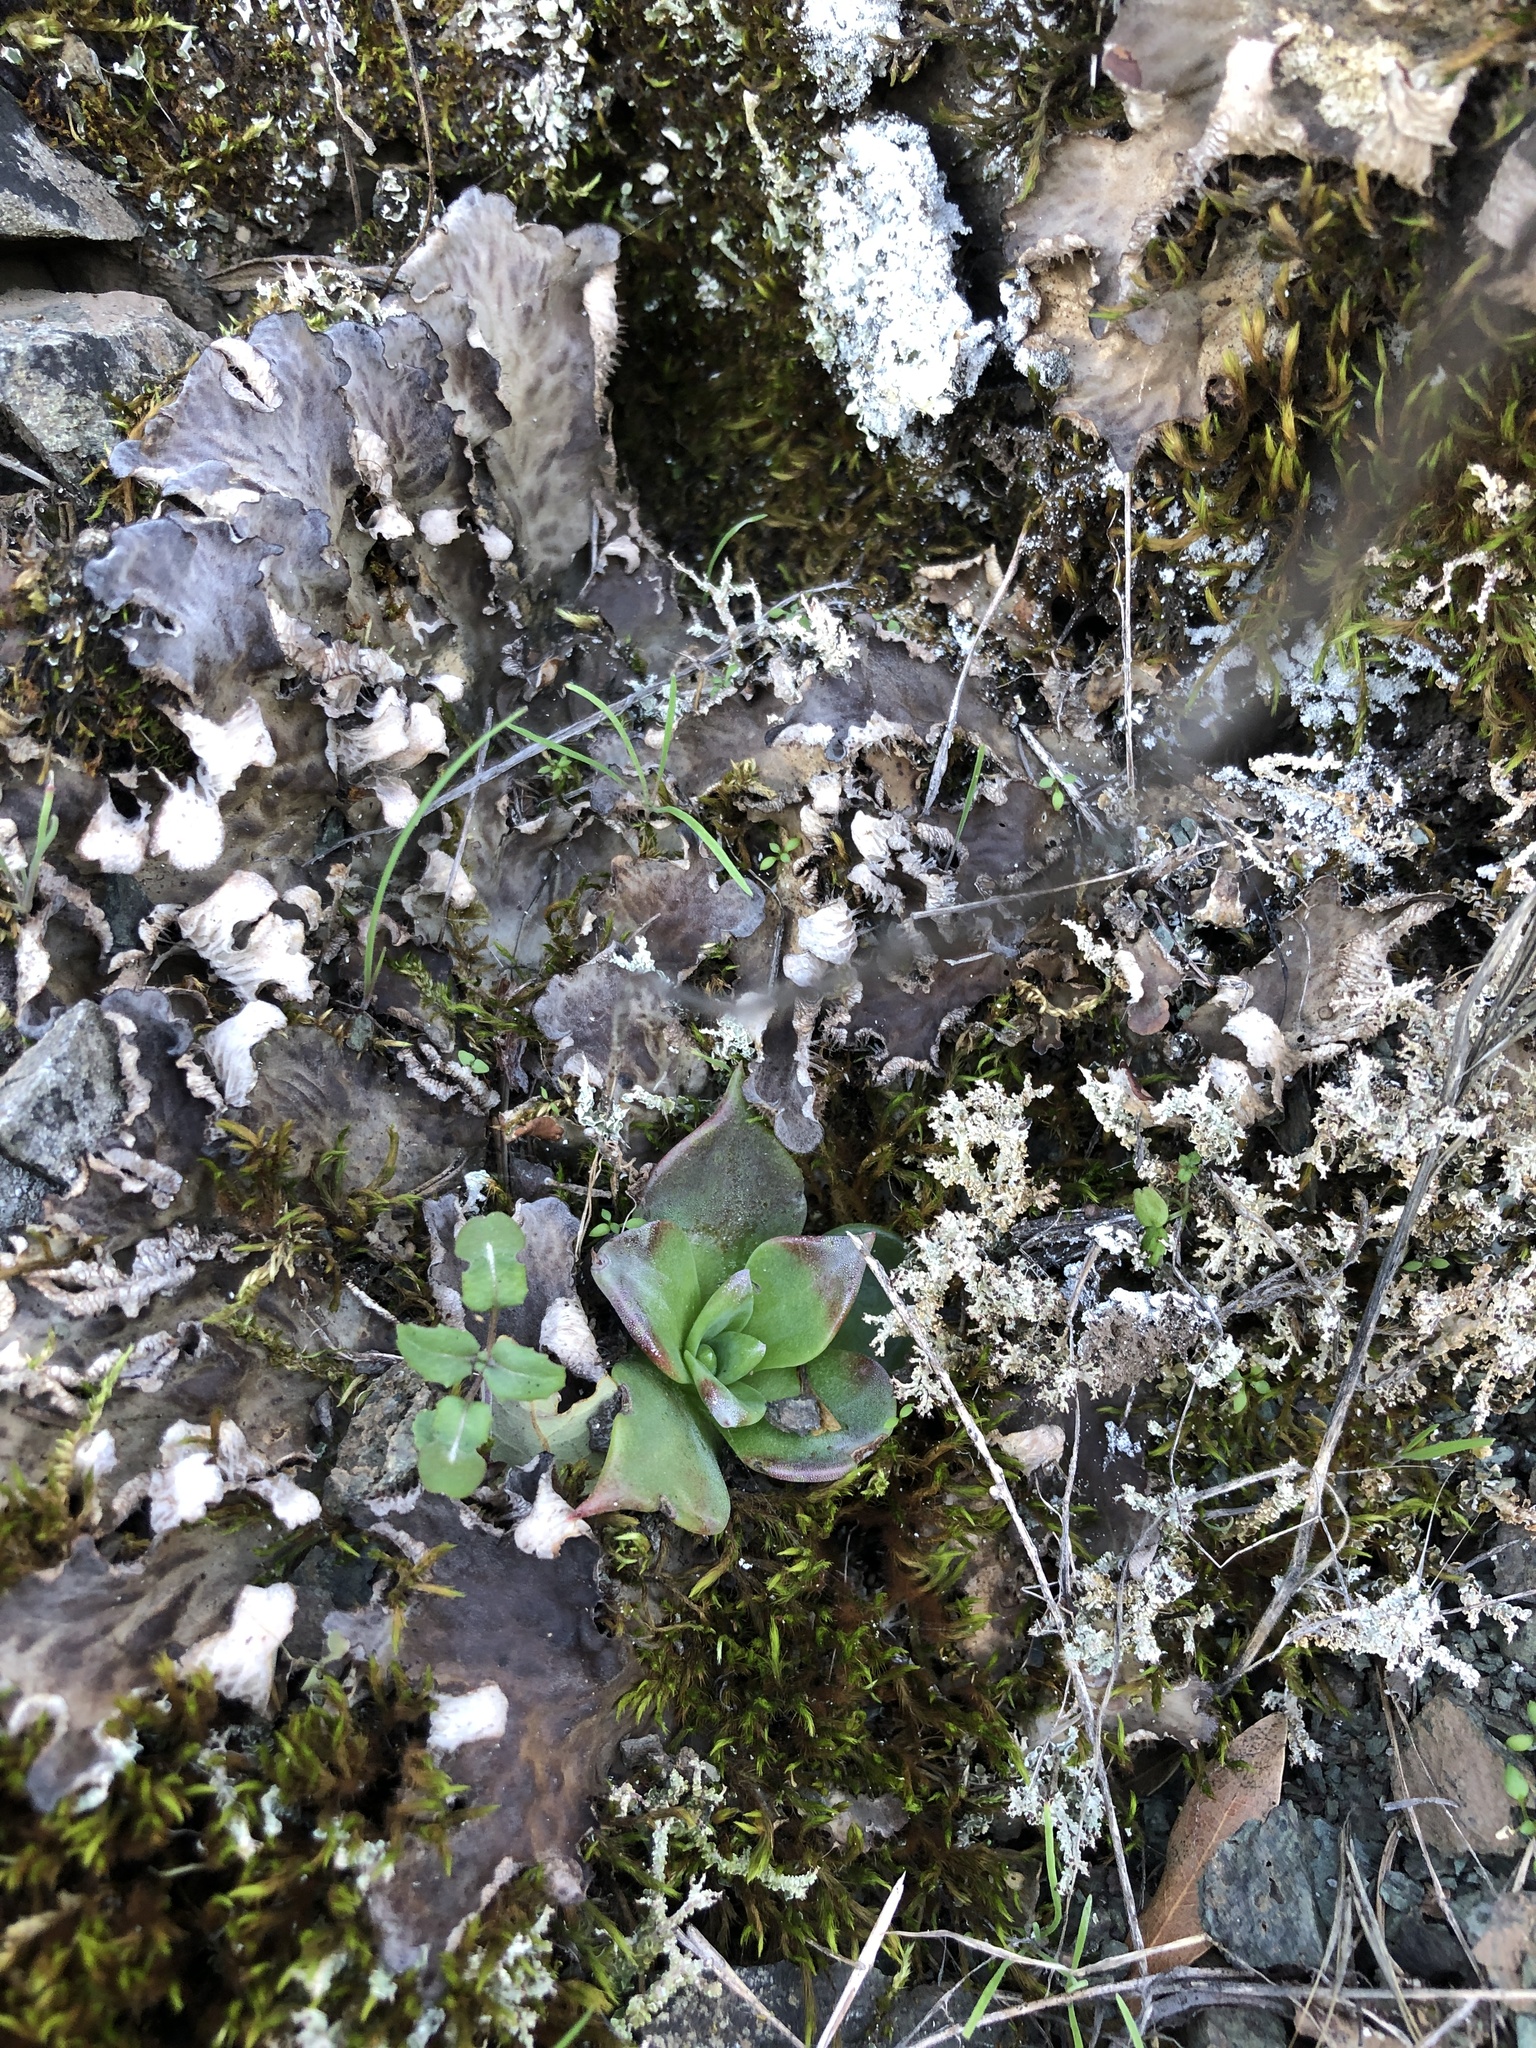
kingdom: Plantae
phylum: Tracheophyta
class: Magnoliopsida
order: Saxifragales
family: Crassulaceae
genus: Dudleya
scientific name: Dudleya cymosa
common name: Canyon dudleya
